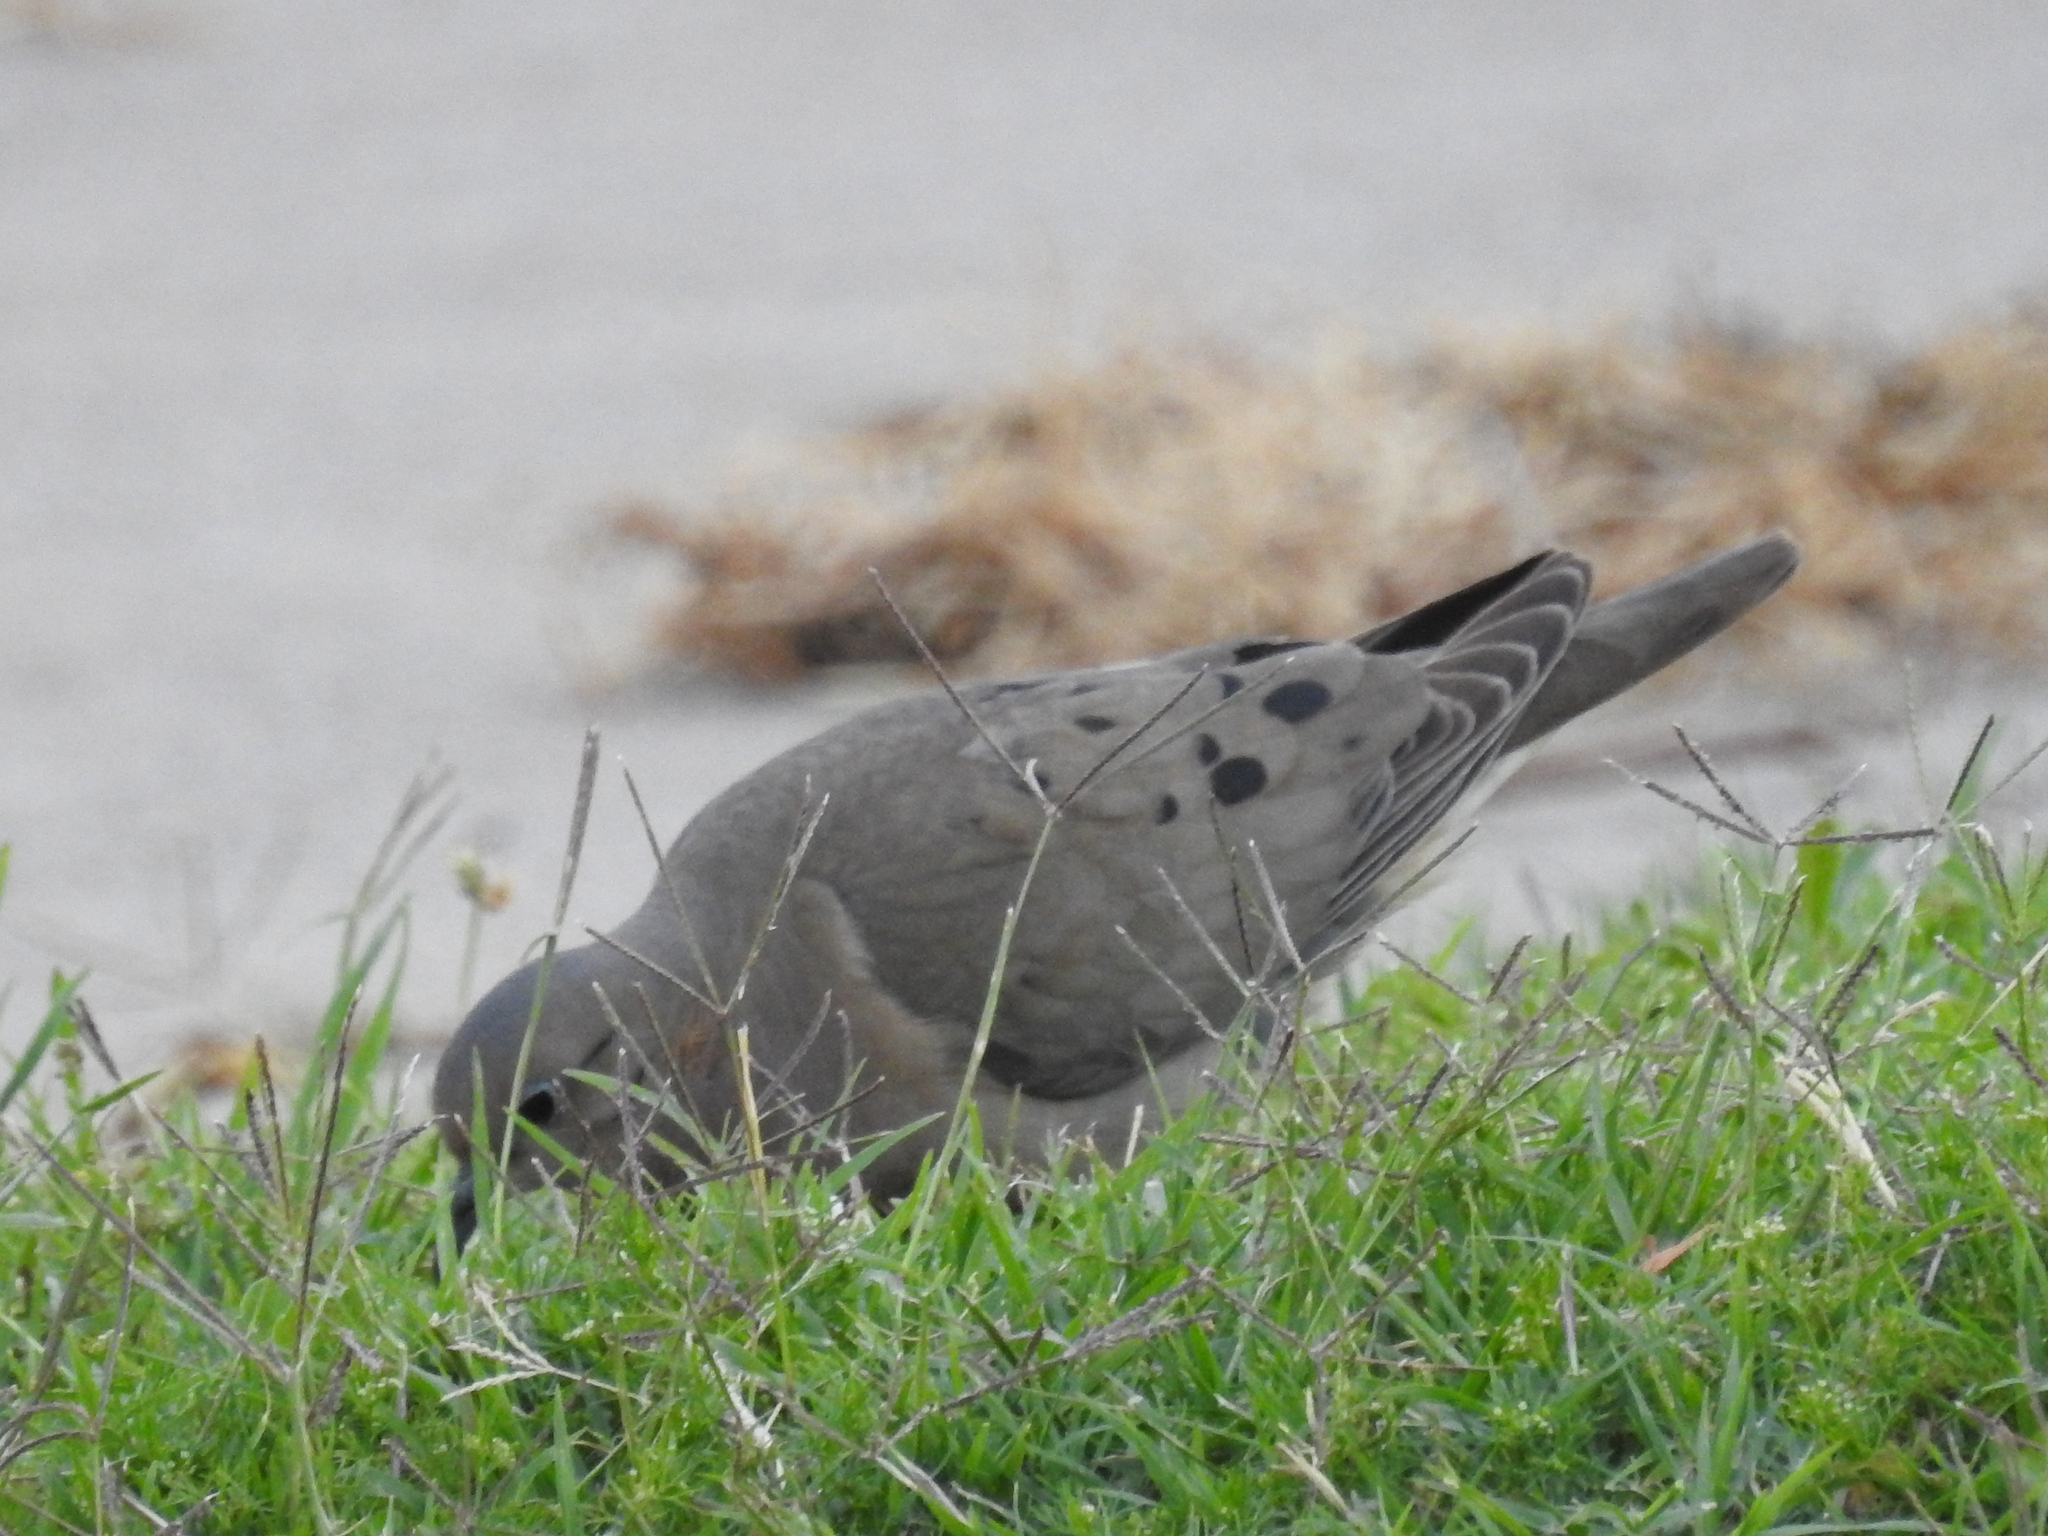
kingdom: Animalia
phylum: Chordata
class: Aves
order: Columbiformes
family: Columbidae
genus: Zenaida
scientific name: Zenaida auriculata
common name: Eared dove
